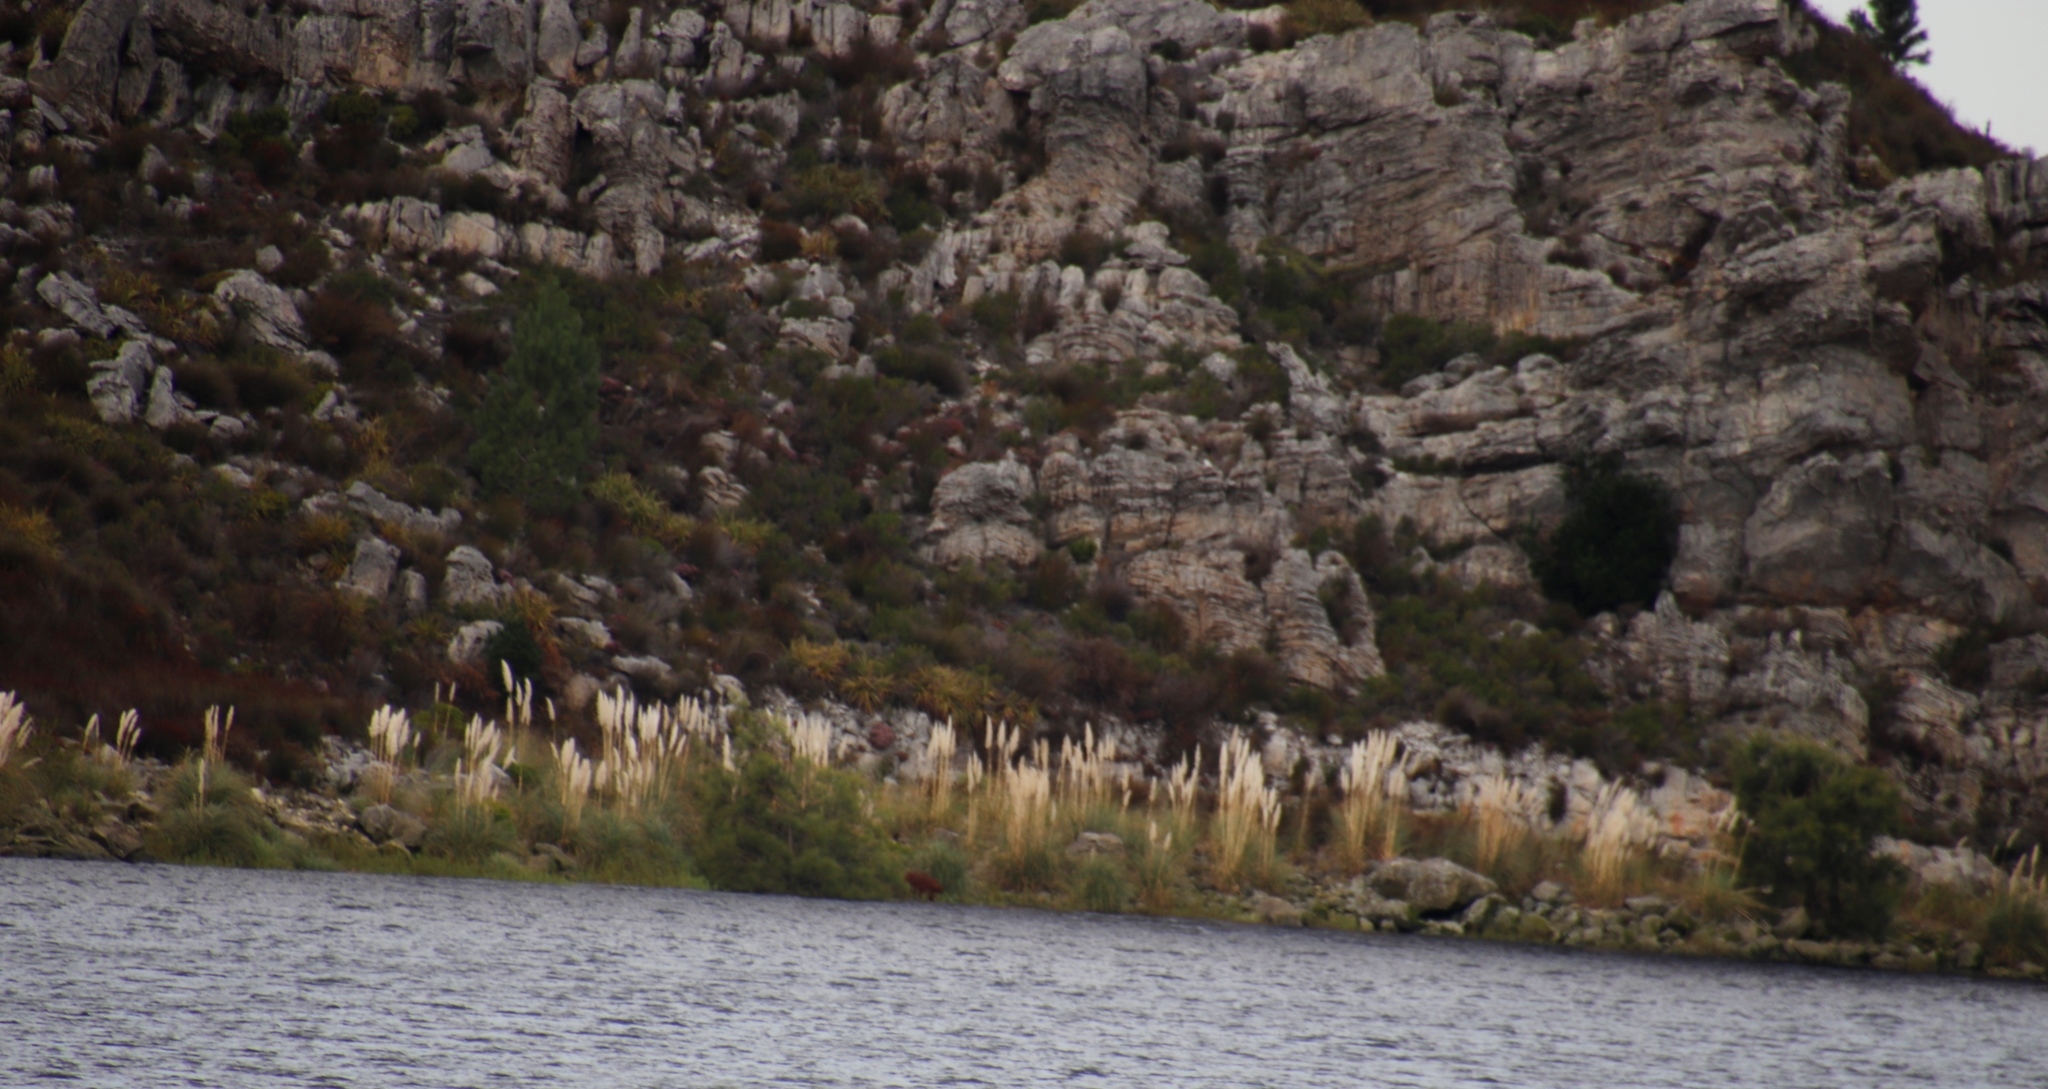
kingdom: Plantae
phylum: Tracheophyta
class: Liliopsida
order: Poales
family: Poaceae
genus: Cortaderia
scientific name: Cortaderia selloana
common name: Uruguayan pampas grass
